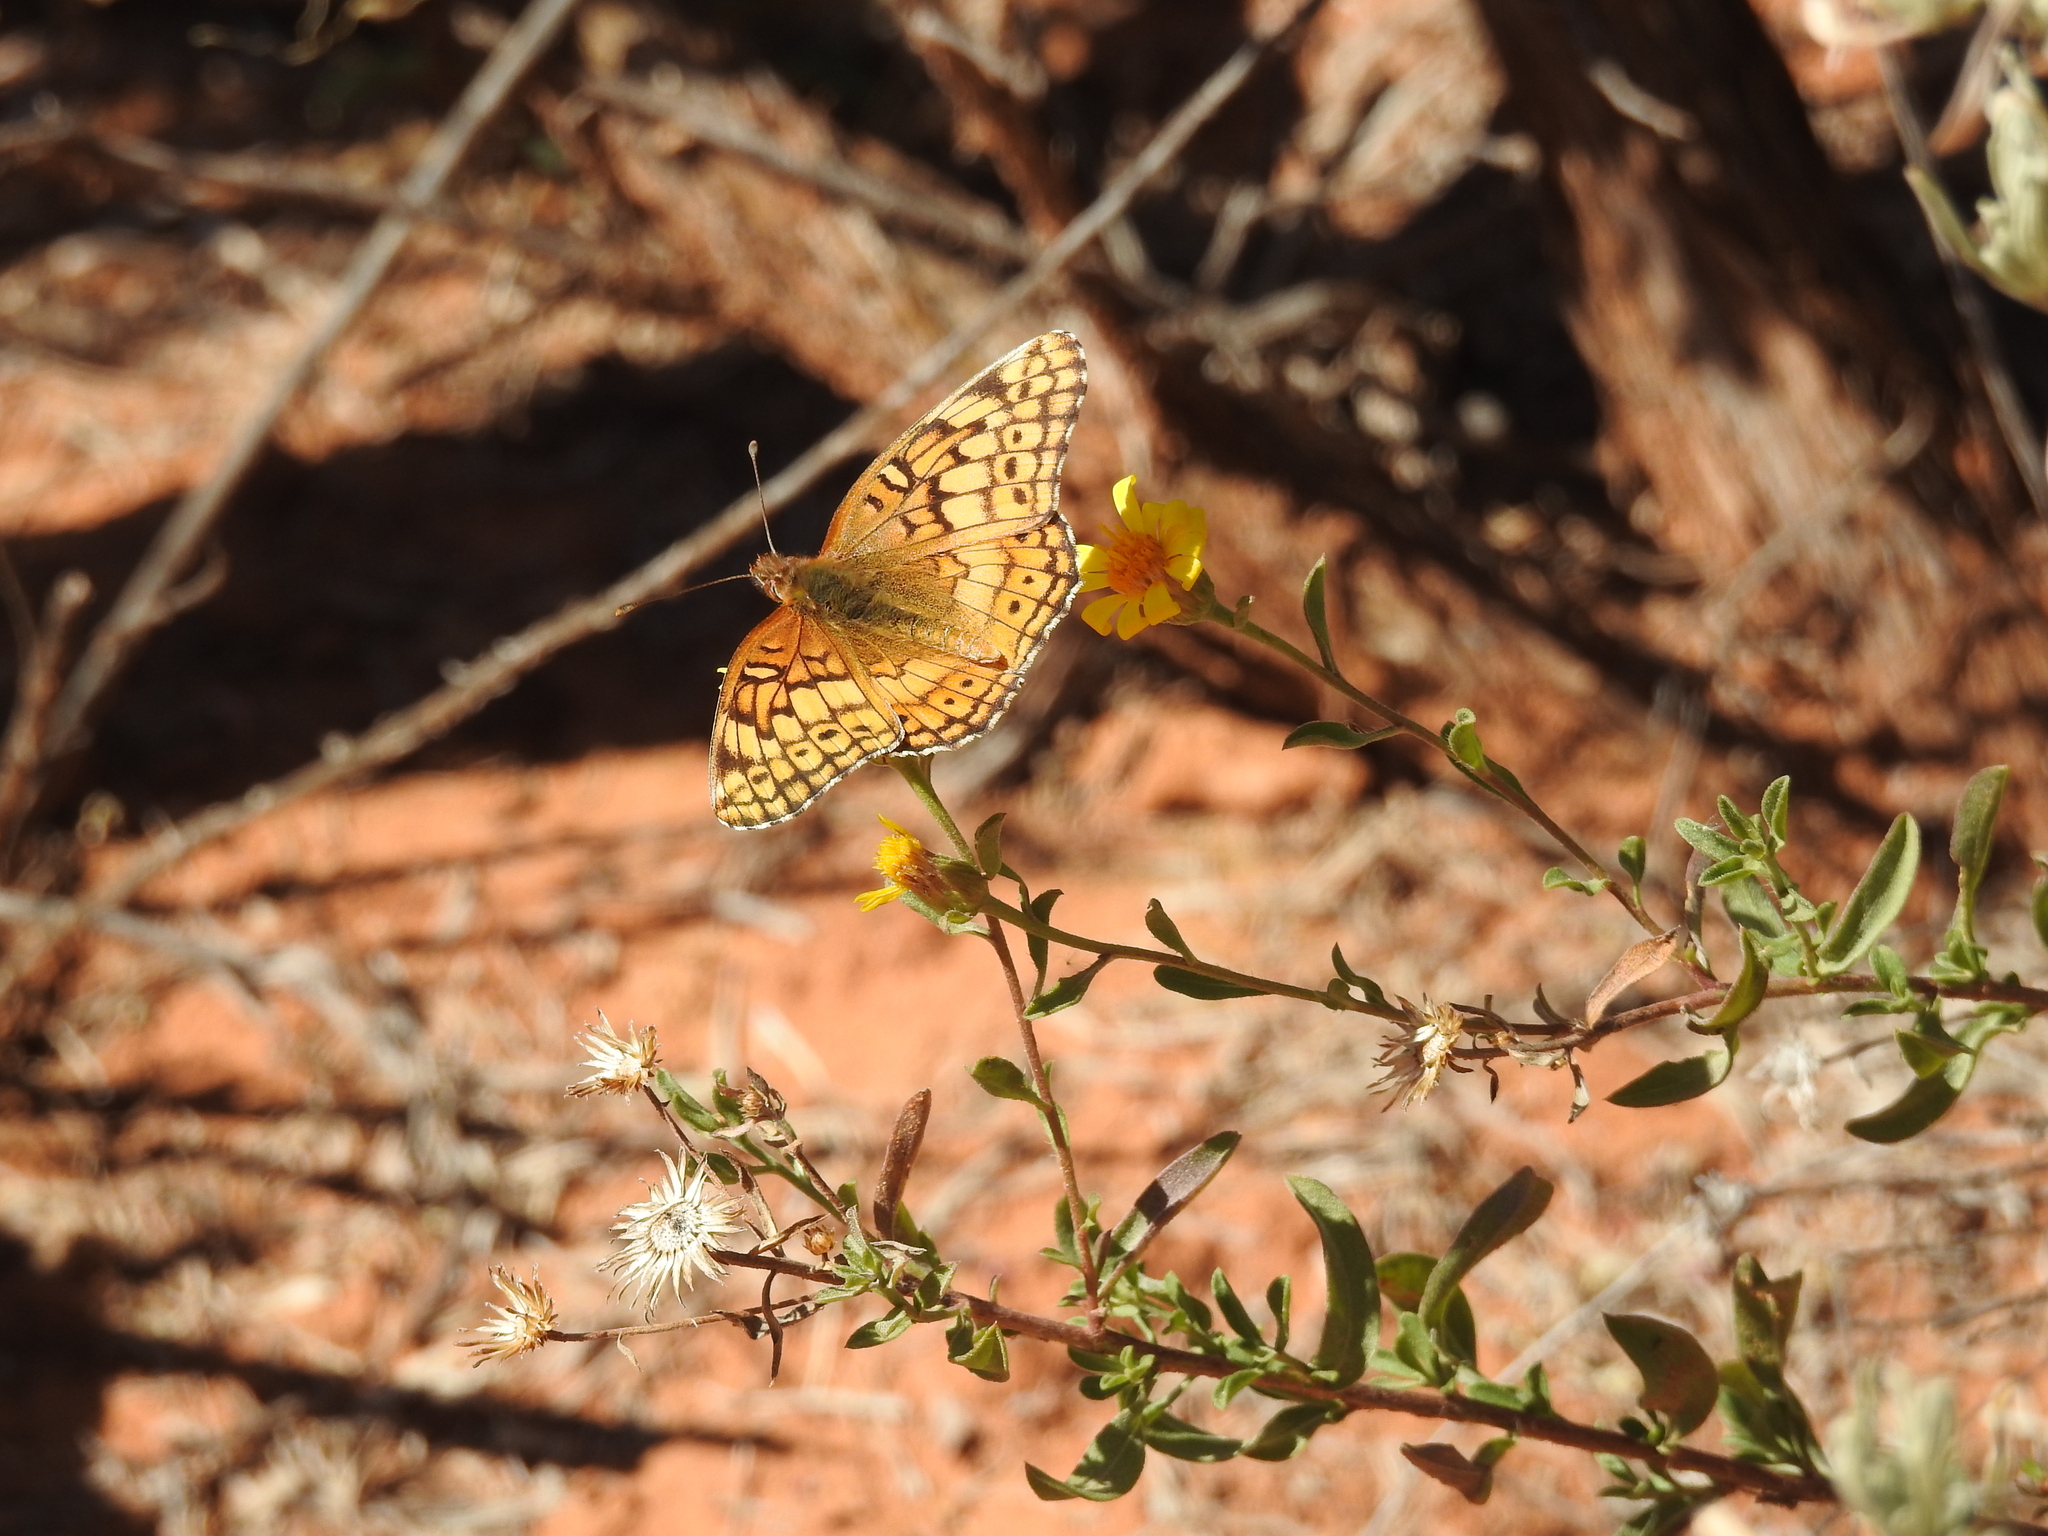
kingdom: Animalia
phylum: Arthropoda
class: Insecta
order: Lepidoptera
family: Nymphalidae
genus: Euptoieta
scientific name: Euptoieta claudia
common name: Variegated fritillary
